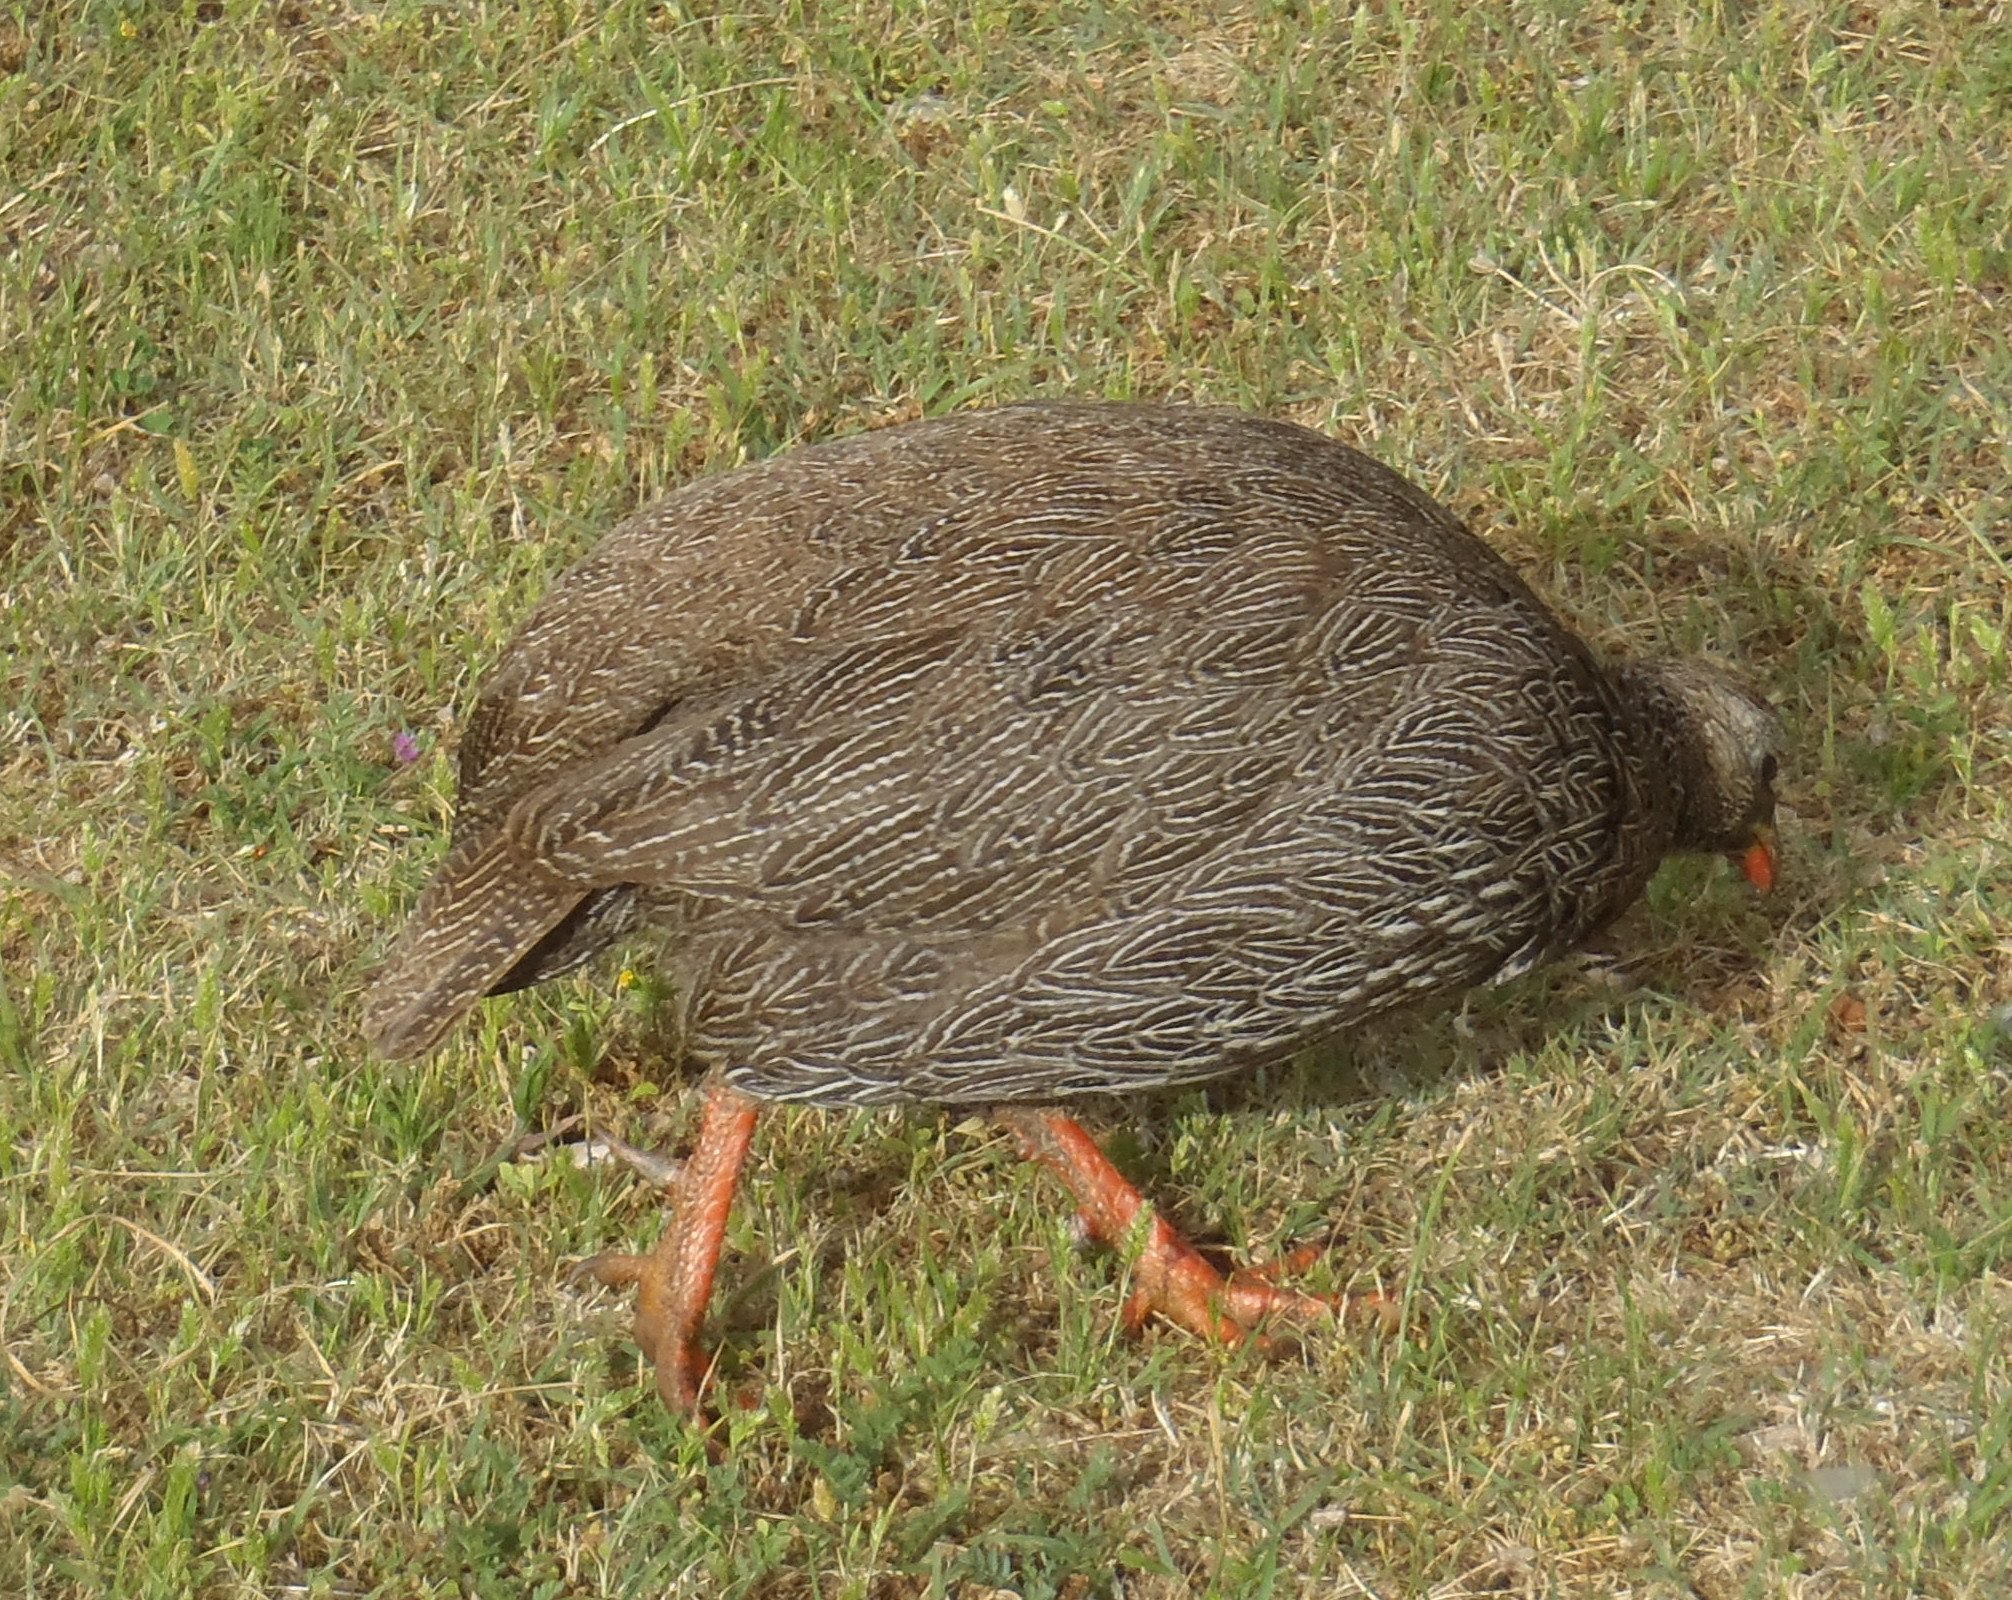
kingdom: Animalia
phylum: Chordata
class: Aves
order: Galliformes
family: Phasianidae
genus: Pternistis
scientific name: Pternistis capensis
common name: Cape spurfowl
